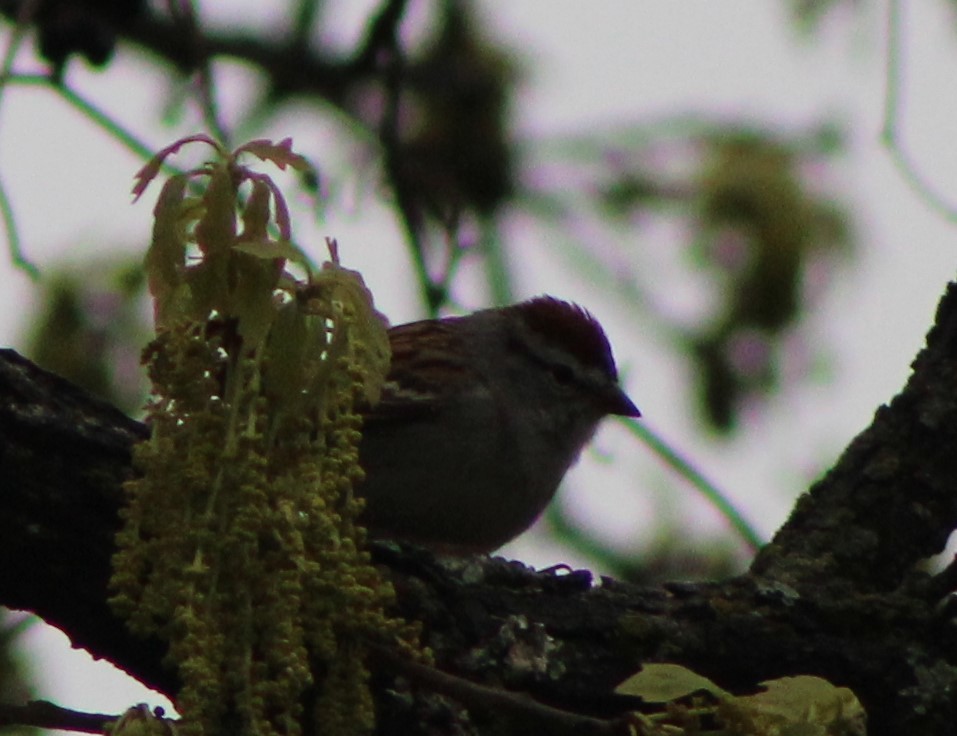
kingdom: Animalia
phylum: Chordata
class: Aves
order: Passeriformes
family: Passerellidae
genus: Spizella
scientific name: Spizella passerina
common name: Chipping sparrow
